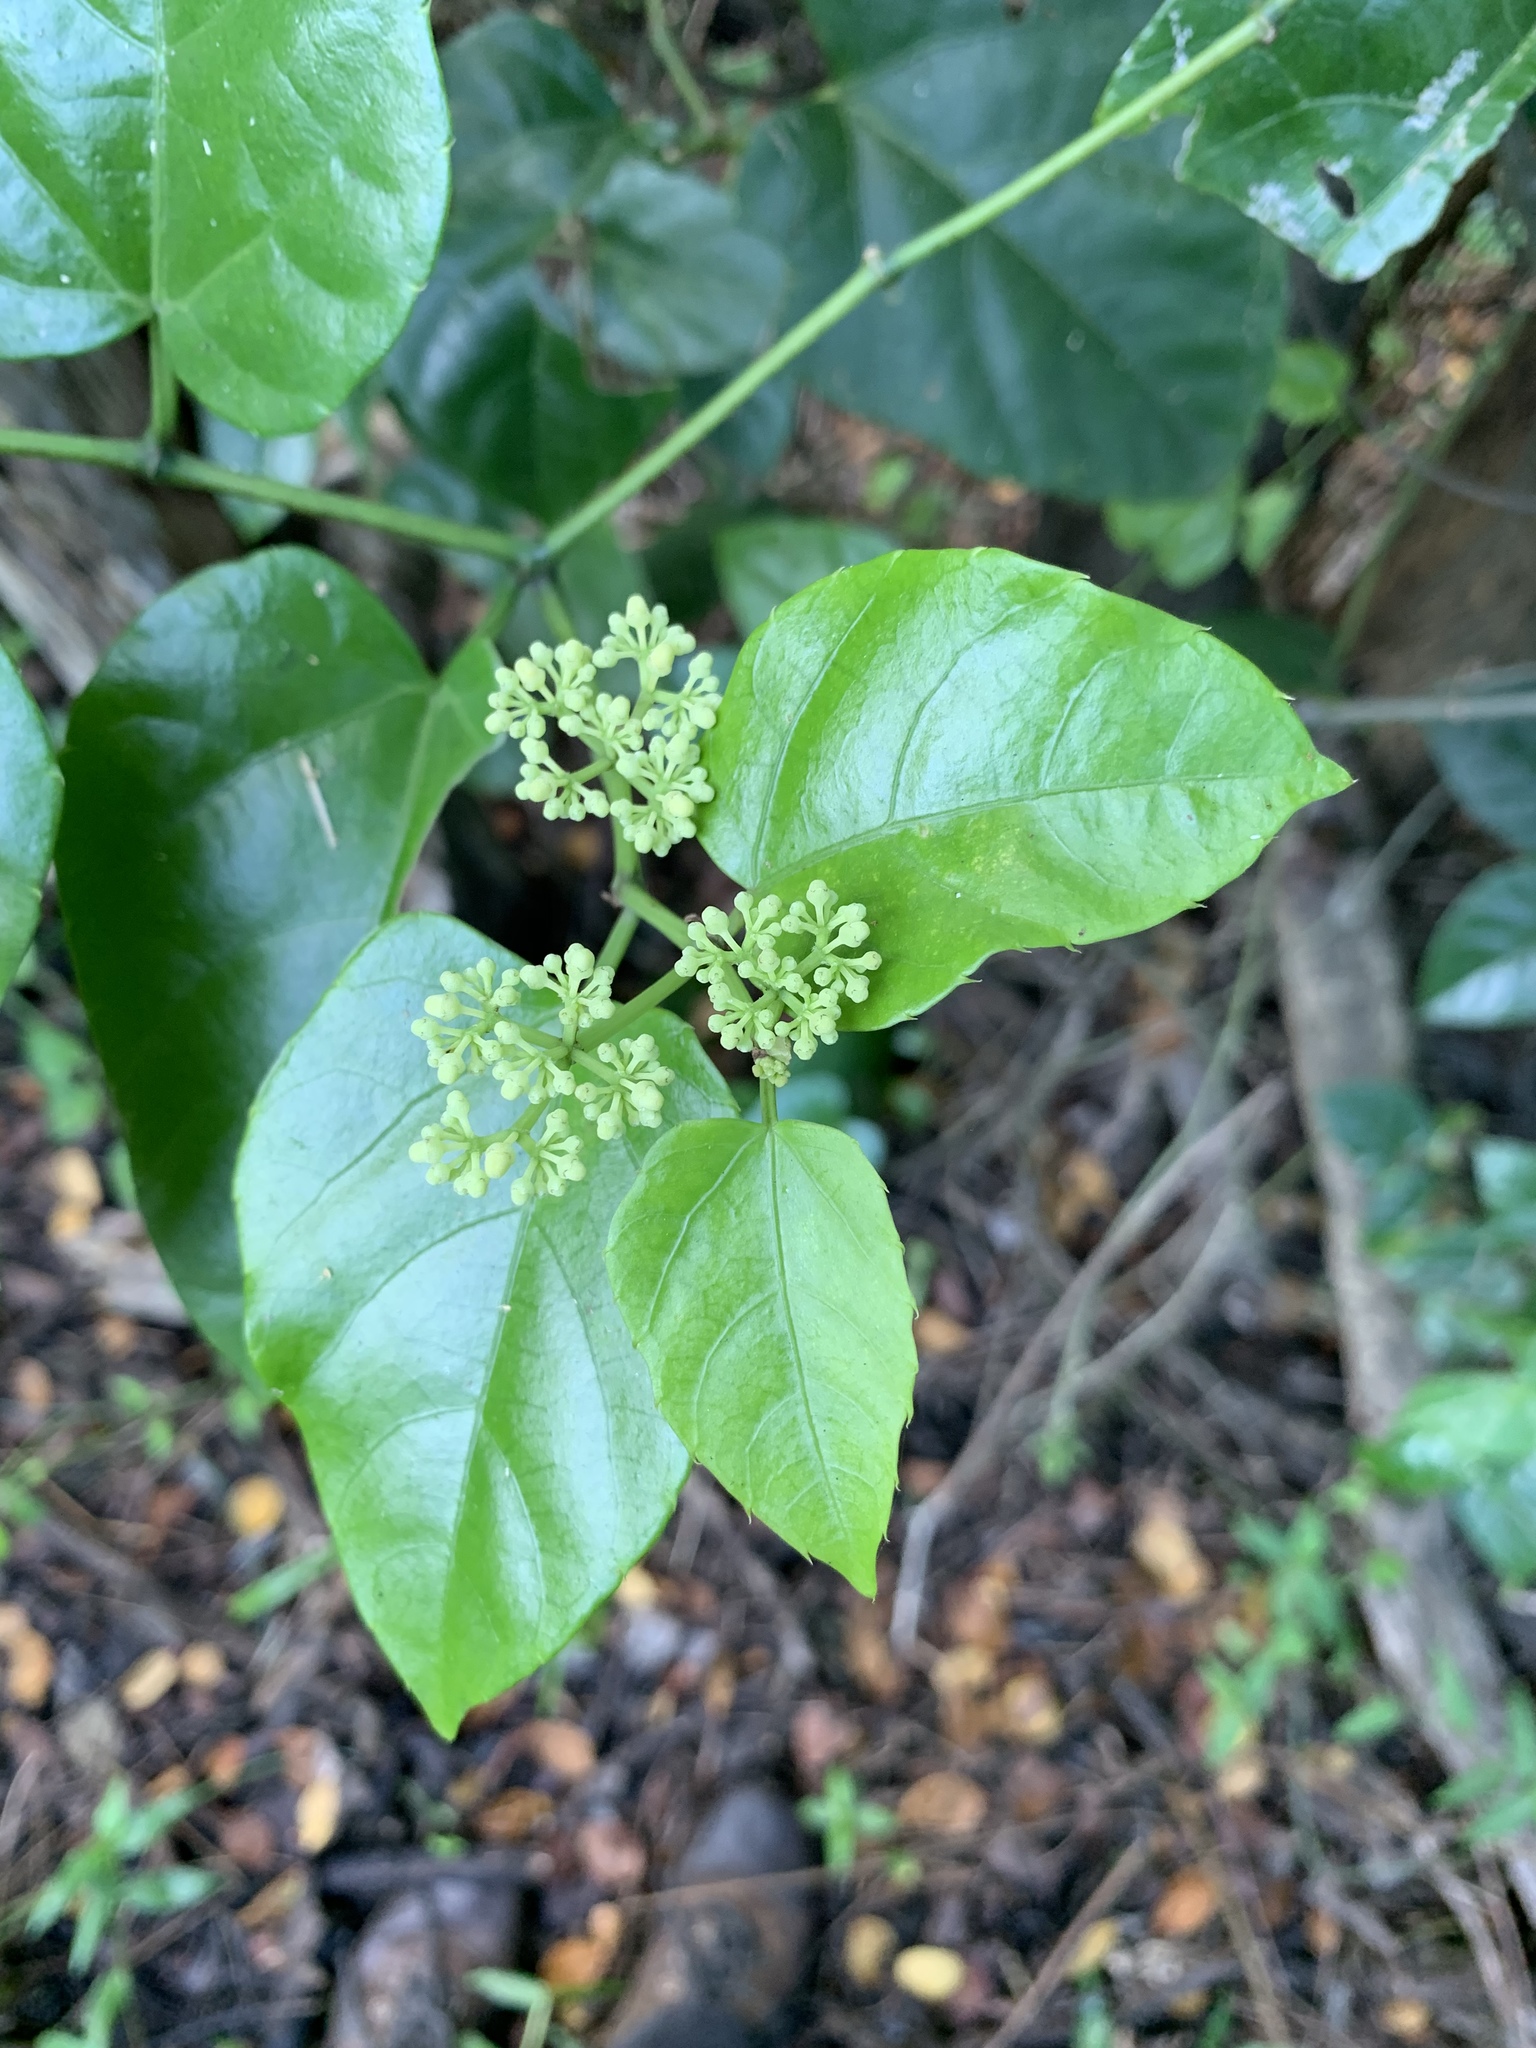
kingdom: Plantae
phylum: Tracheophyta
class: Magnoliopsida
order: Vitales
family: Vitaceae
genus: Cissus
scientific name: Cissus verticillata
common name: Princess vine
